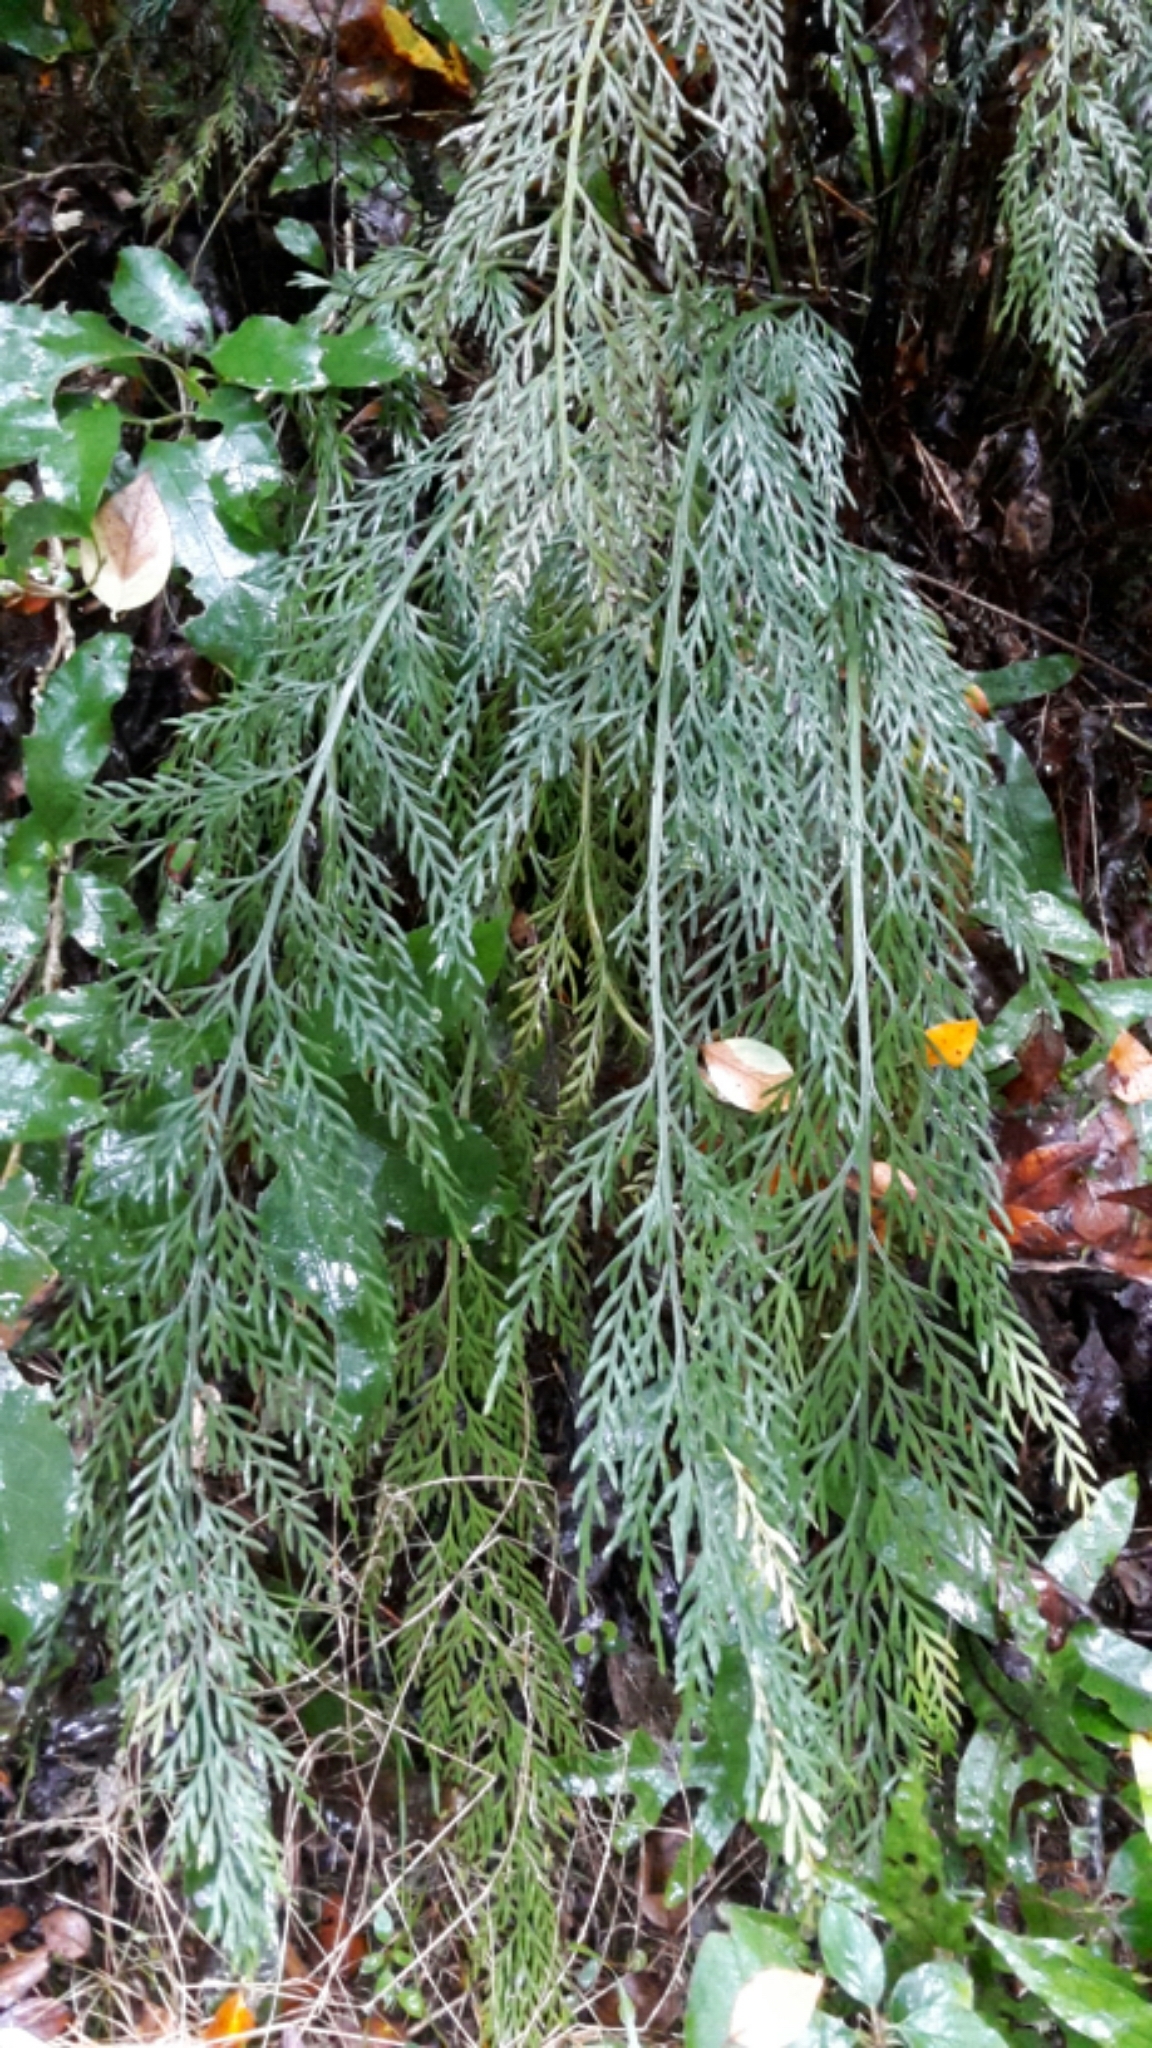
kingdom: Plantae
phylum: Tracheophyta
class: Polypodiopsida
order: Polypodiales
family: Aspleniaceae
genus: Asplenium
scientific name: Asplenium appendiculatum
